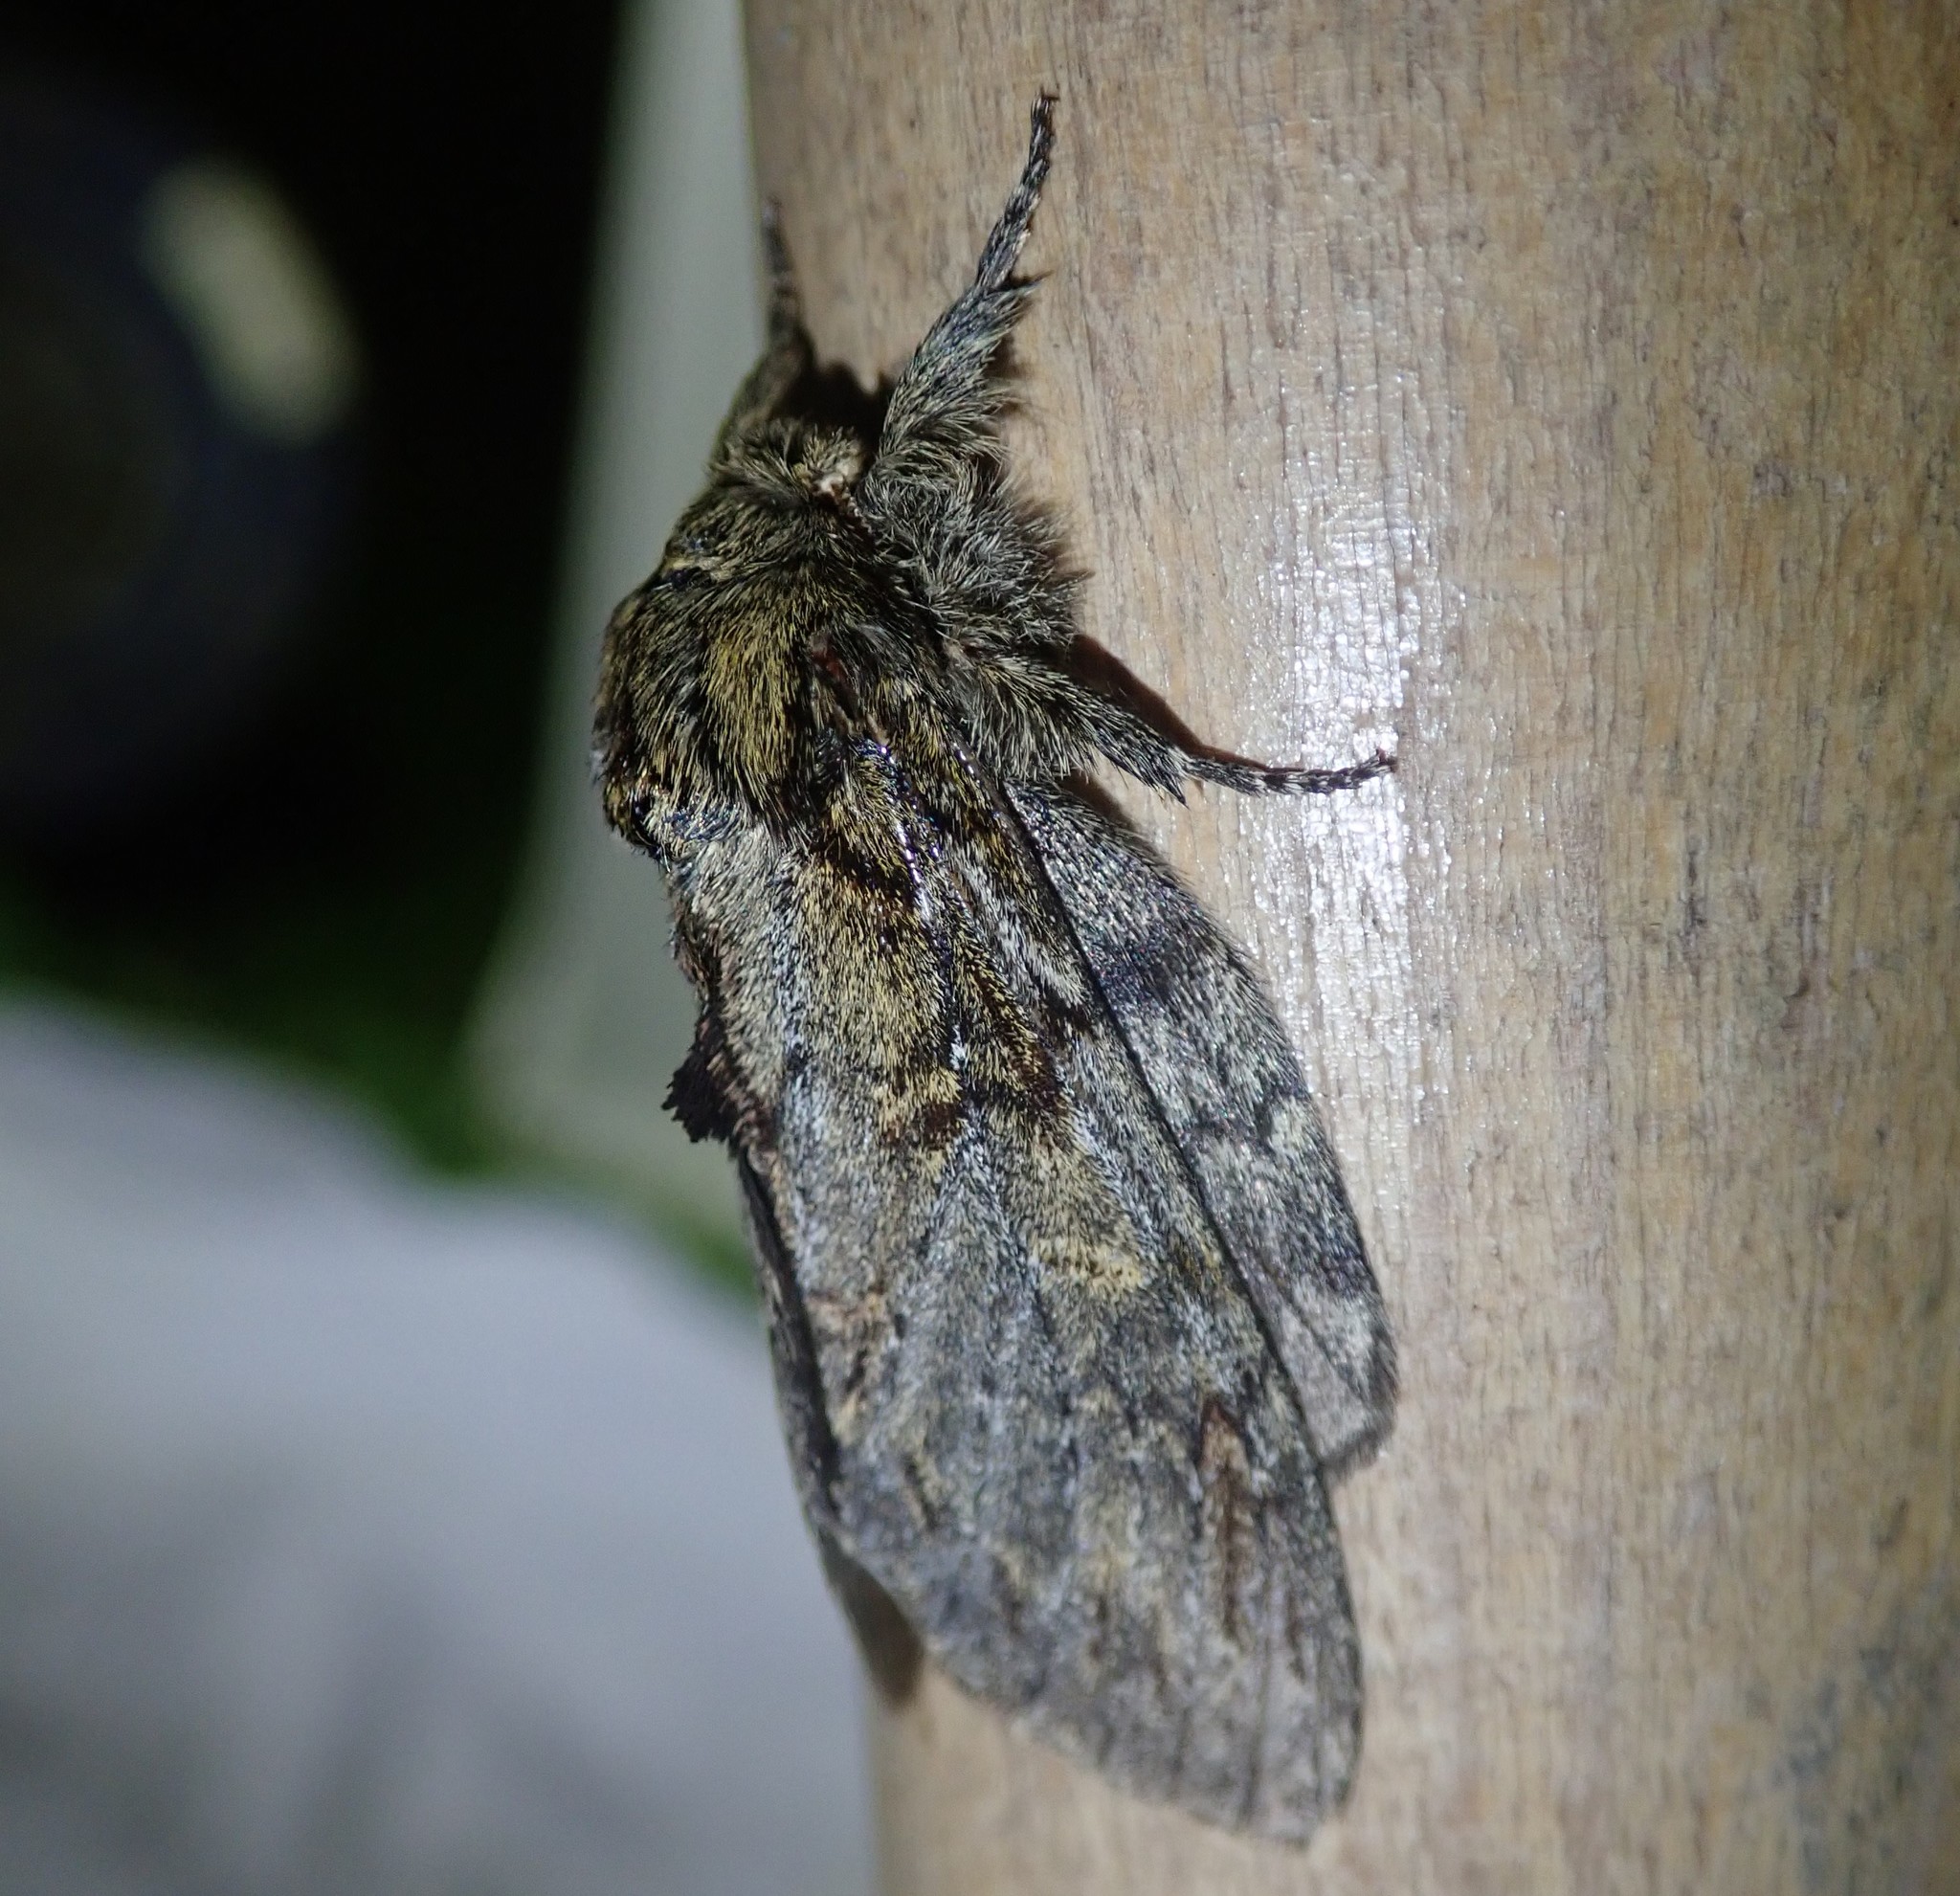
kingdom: Animalia
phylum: Arthropoda
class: Insecta
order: Lepidoptera
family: Notodontidae
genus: Peridea
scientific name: Peridea anceps
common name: Great prominent
